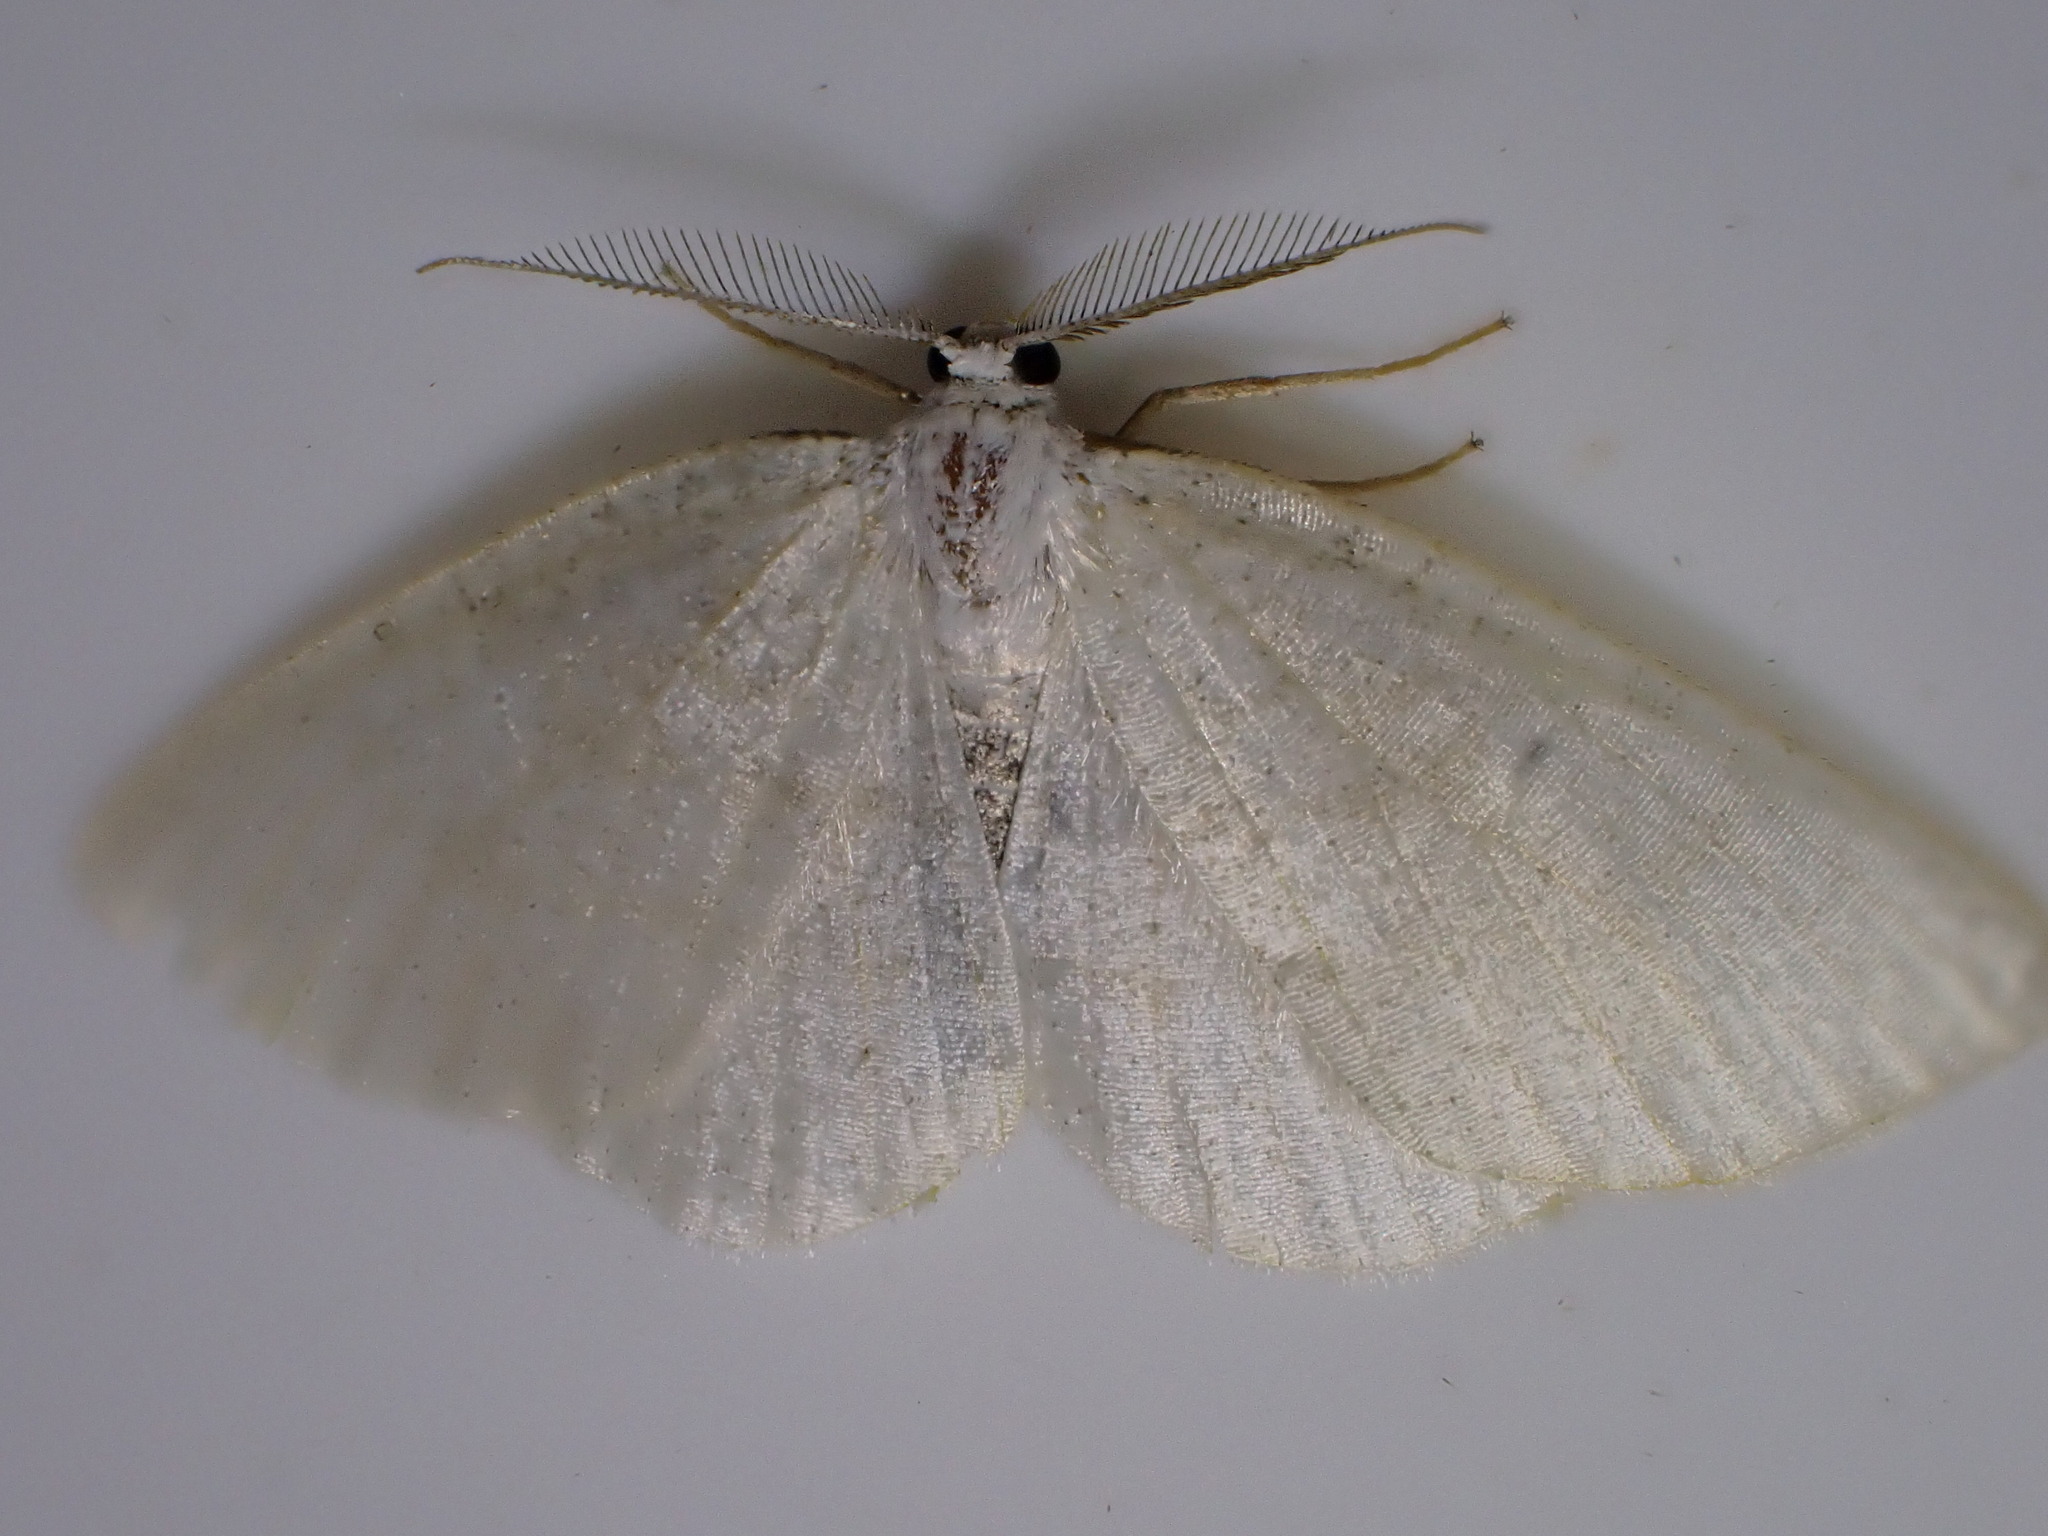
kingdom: Animalia
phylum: Arthropoda
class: Insecta
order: Lepidoptera
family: Geometridae
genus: Cabera
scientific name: Cabera exanthemata
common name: Common wave
